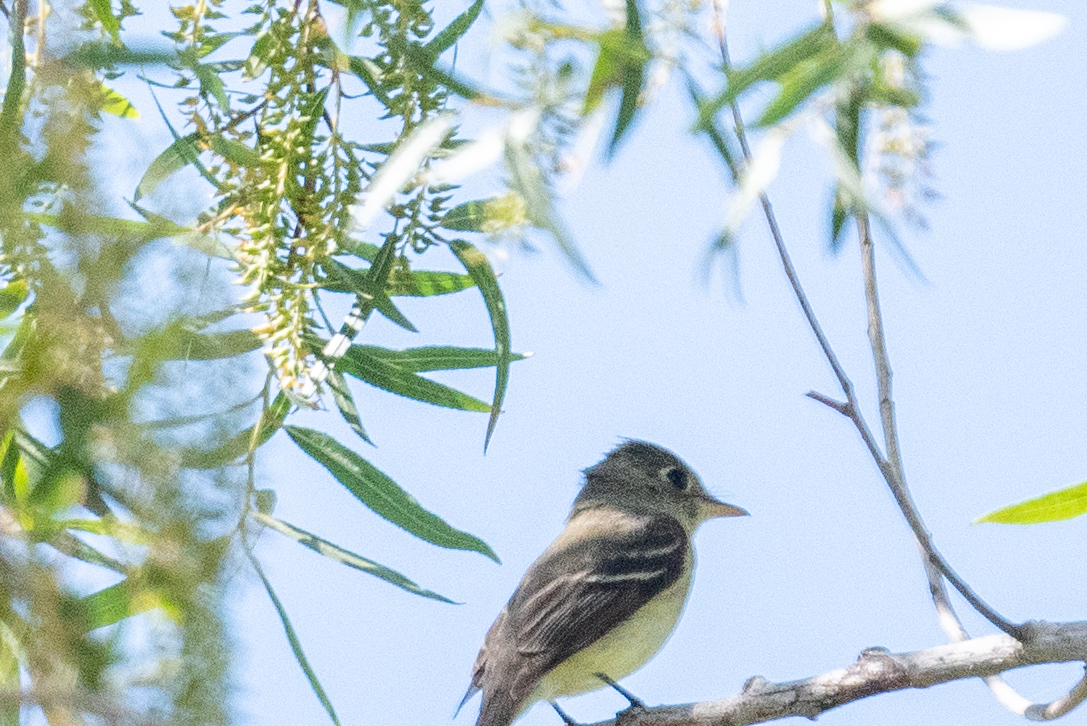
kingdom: Animalia
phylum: Chordata
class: Aves
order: Passeriformes
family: Tyrannidae
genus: Empidonax
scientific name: Empidonax difficilis
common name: Pacific-slope flycatcher
